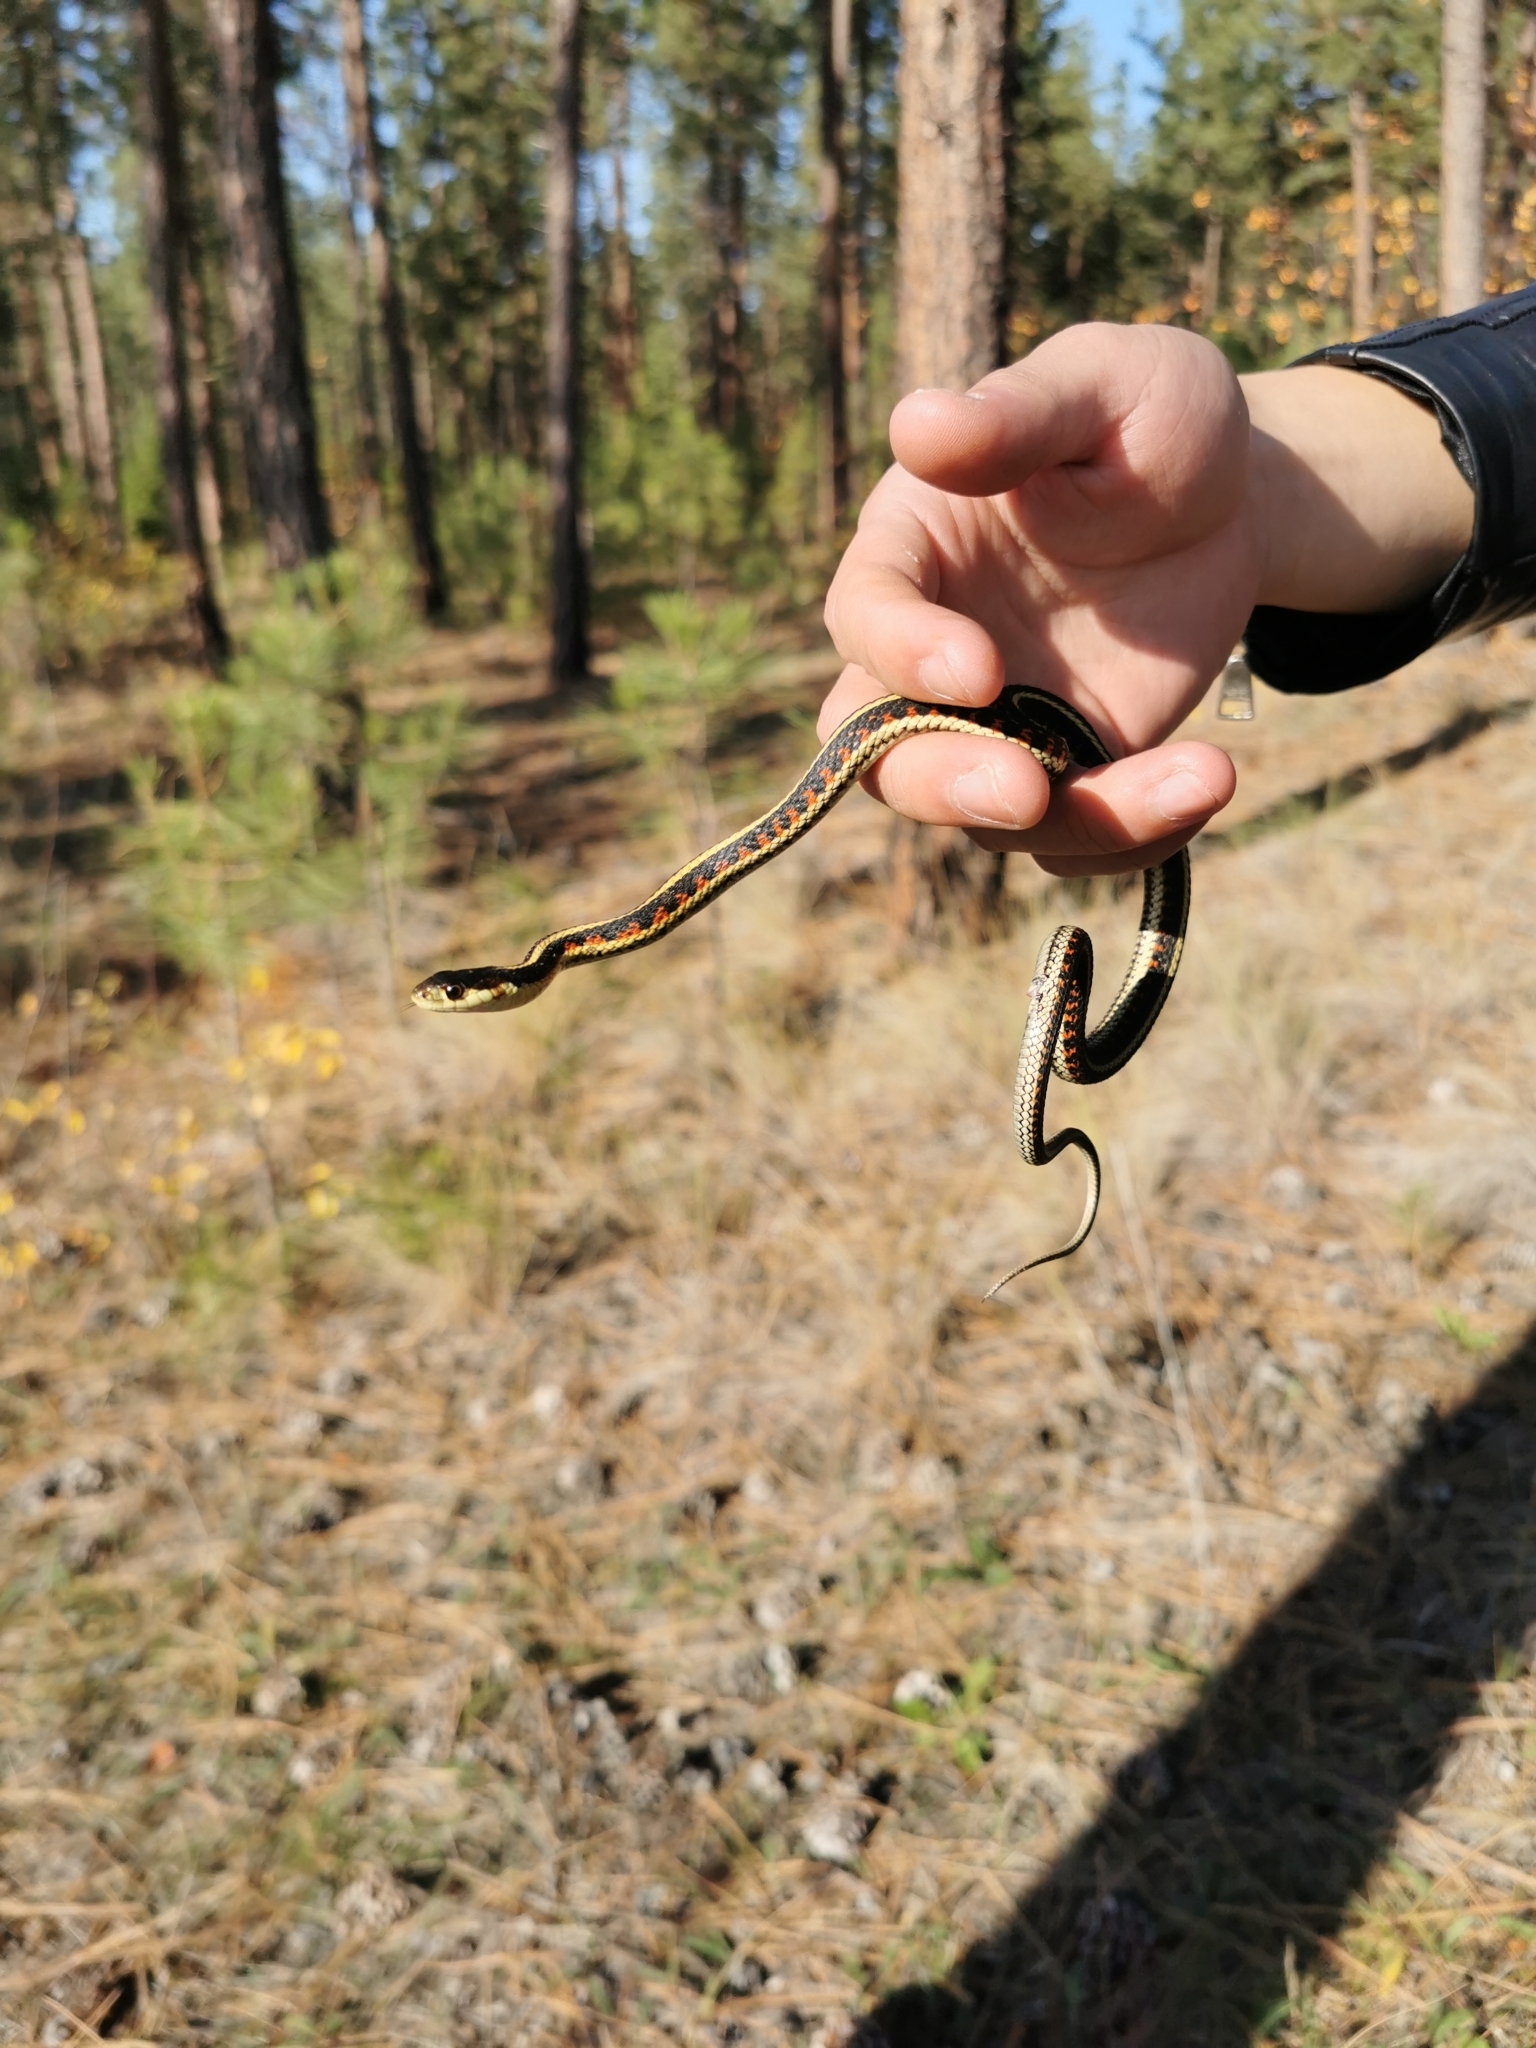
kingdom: Animalia
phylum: Chordata
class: Squamata
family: Colubridae
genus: Thamnophis
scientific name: Thamnophis sirtalis
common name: Common garter snake
